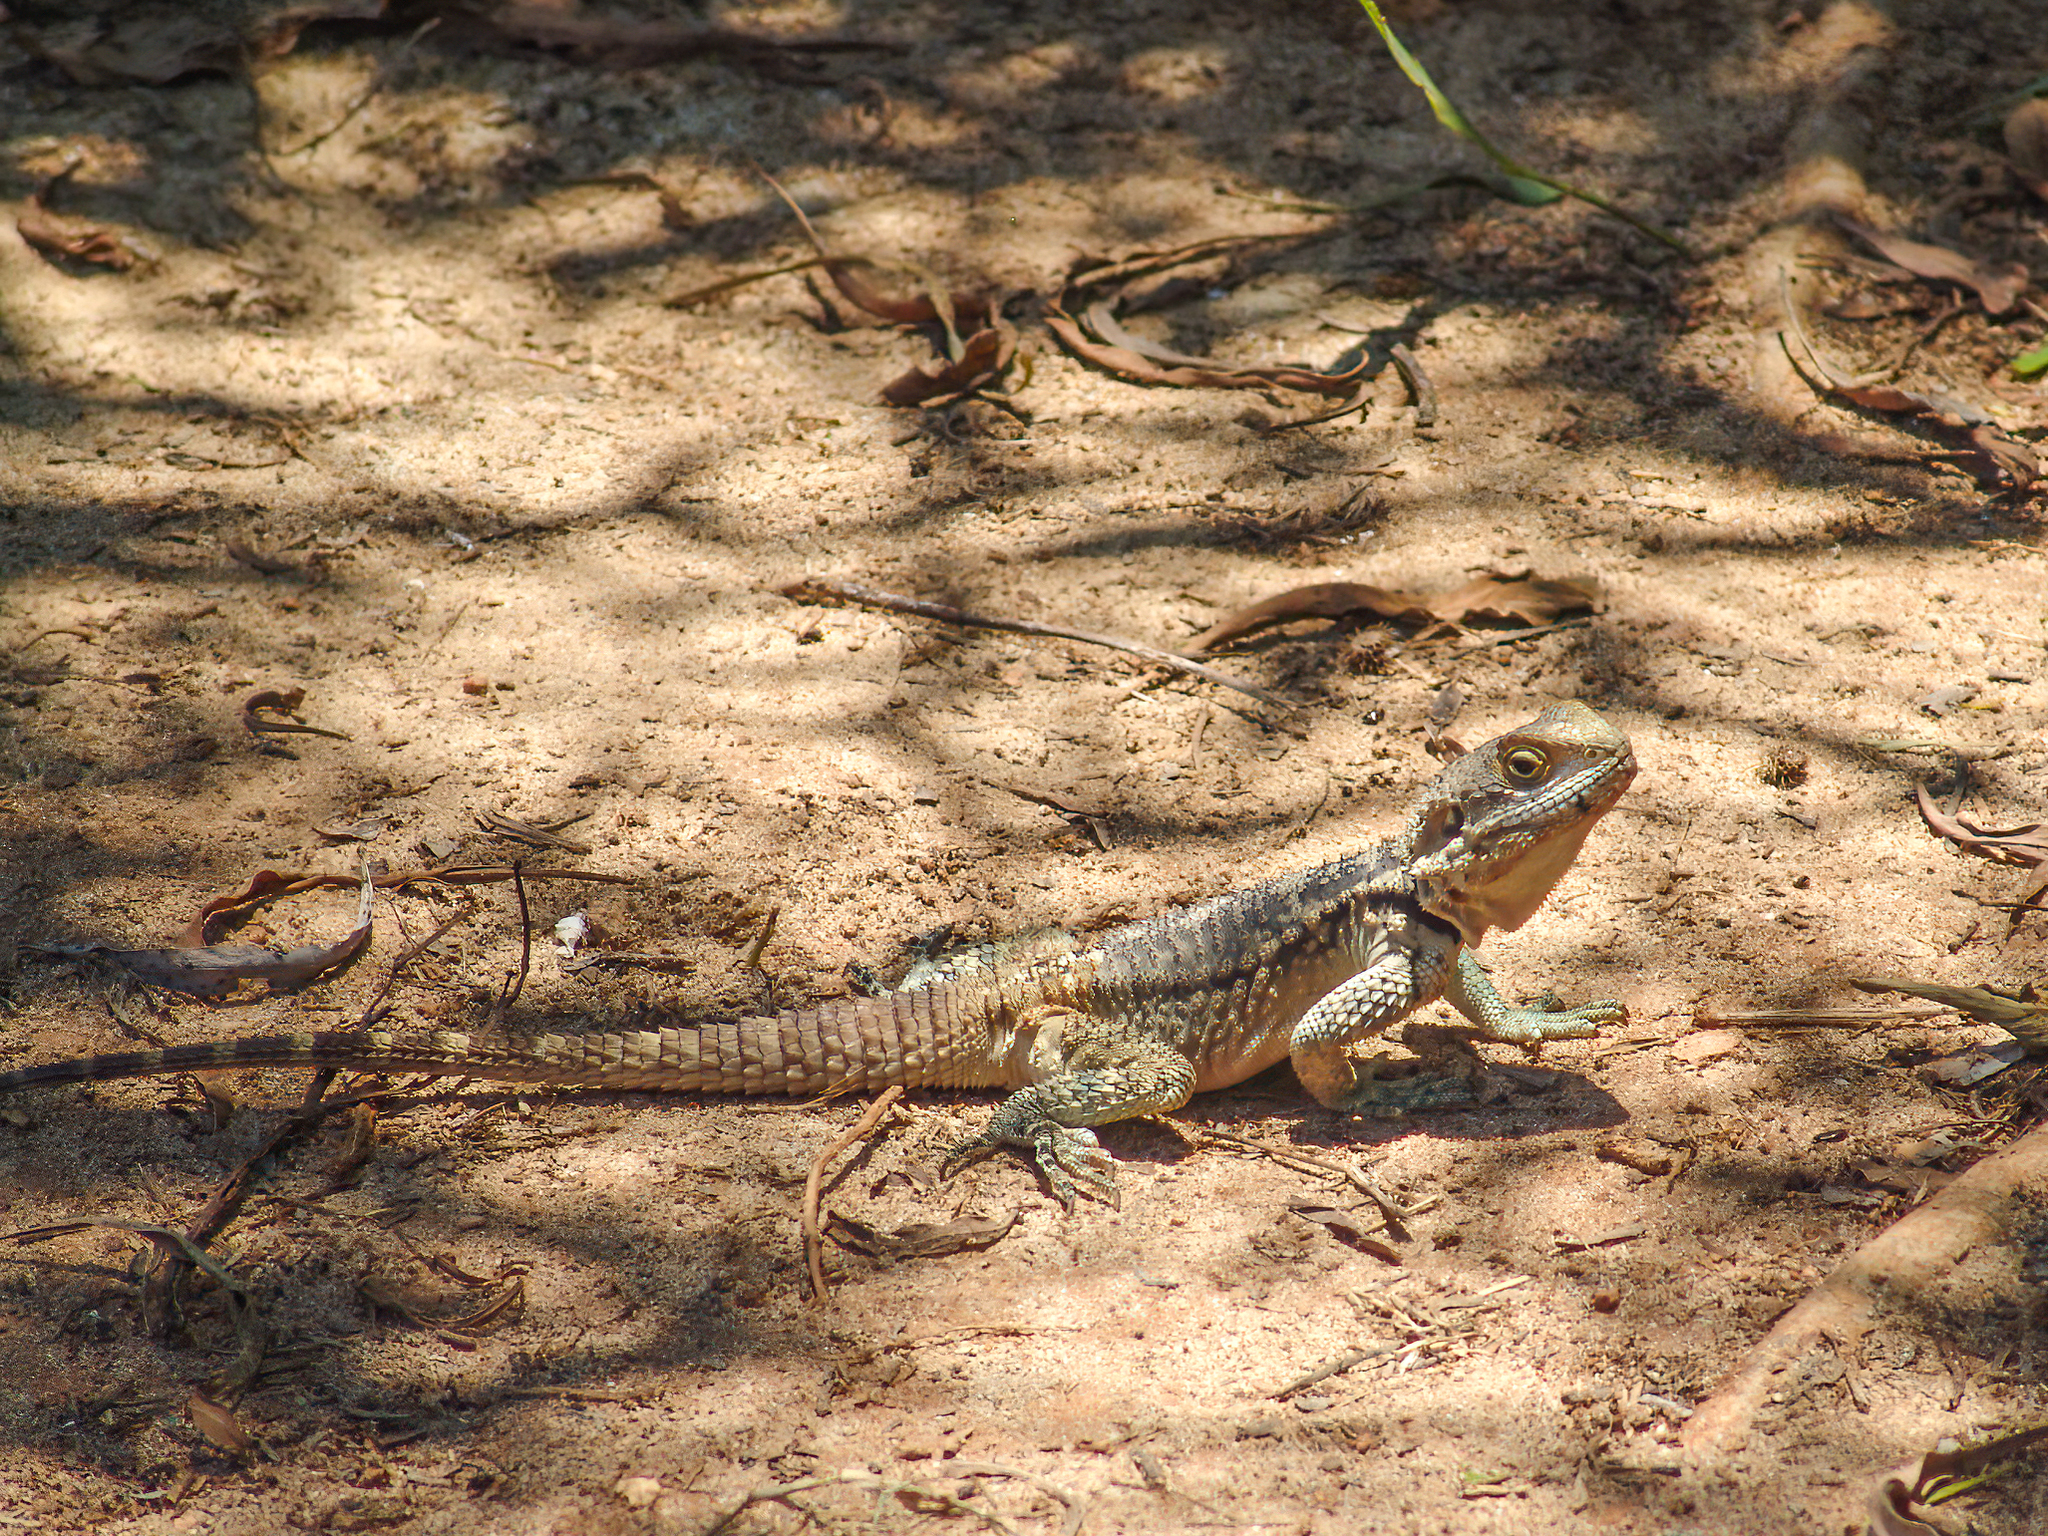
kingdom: Animalia
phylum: Chordata
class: Squamata
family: Agamidae
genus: Laudakia
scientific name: Laudakia
